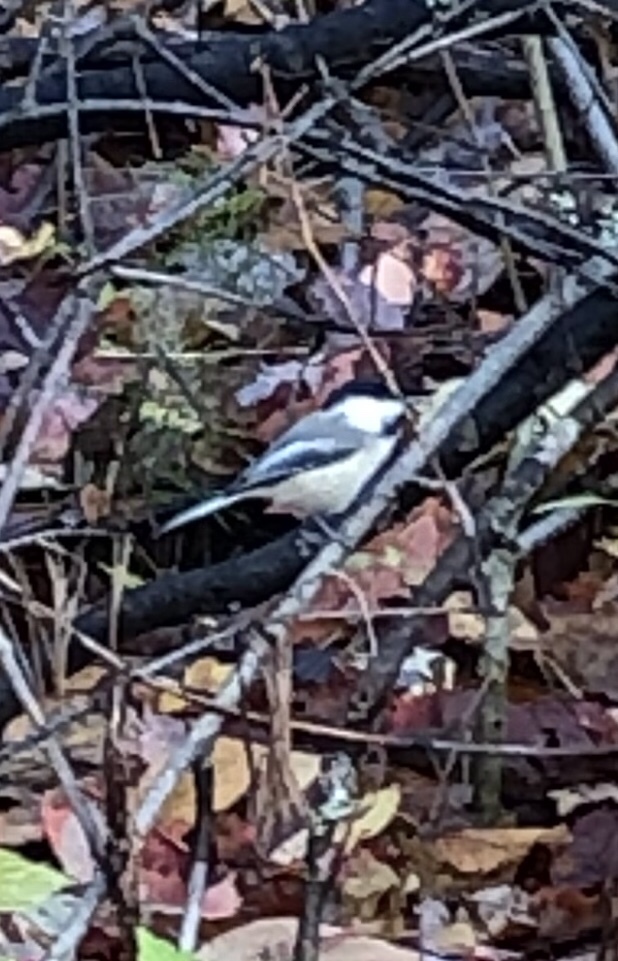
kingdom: Animalia
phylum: Chordata
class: Aves
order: Passeriformes
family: Paridae
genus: Poecile
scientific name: Poecile atricapillus
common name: Black-capped chickadee
